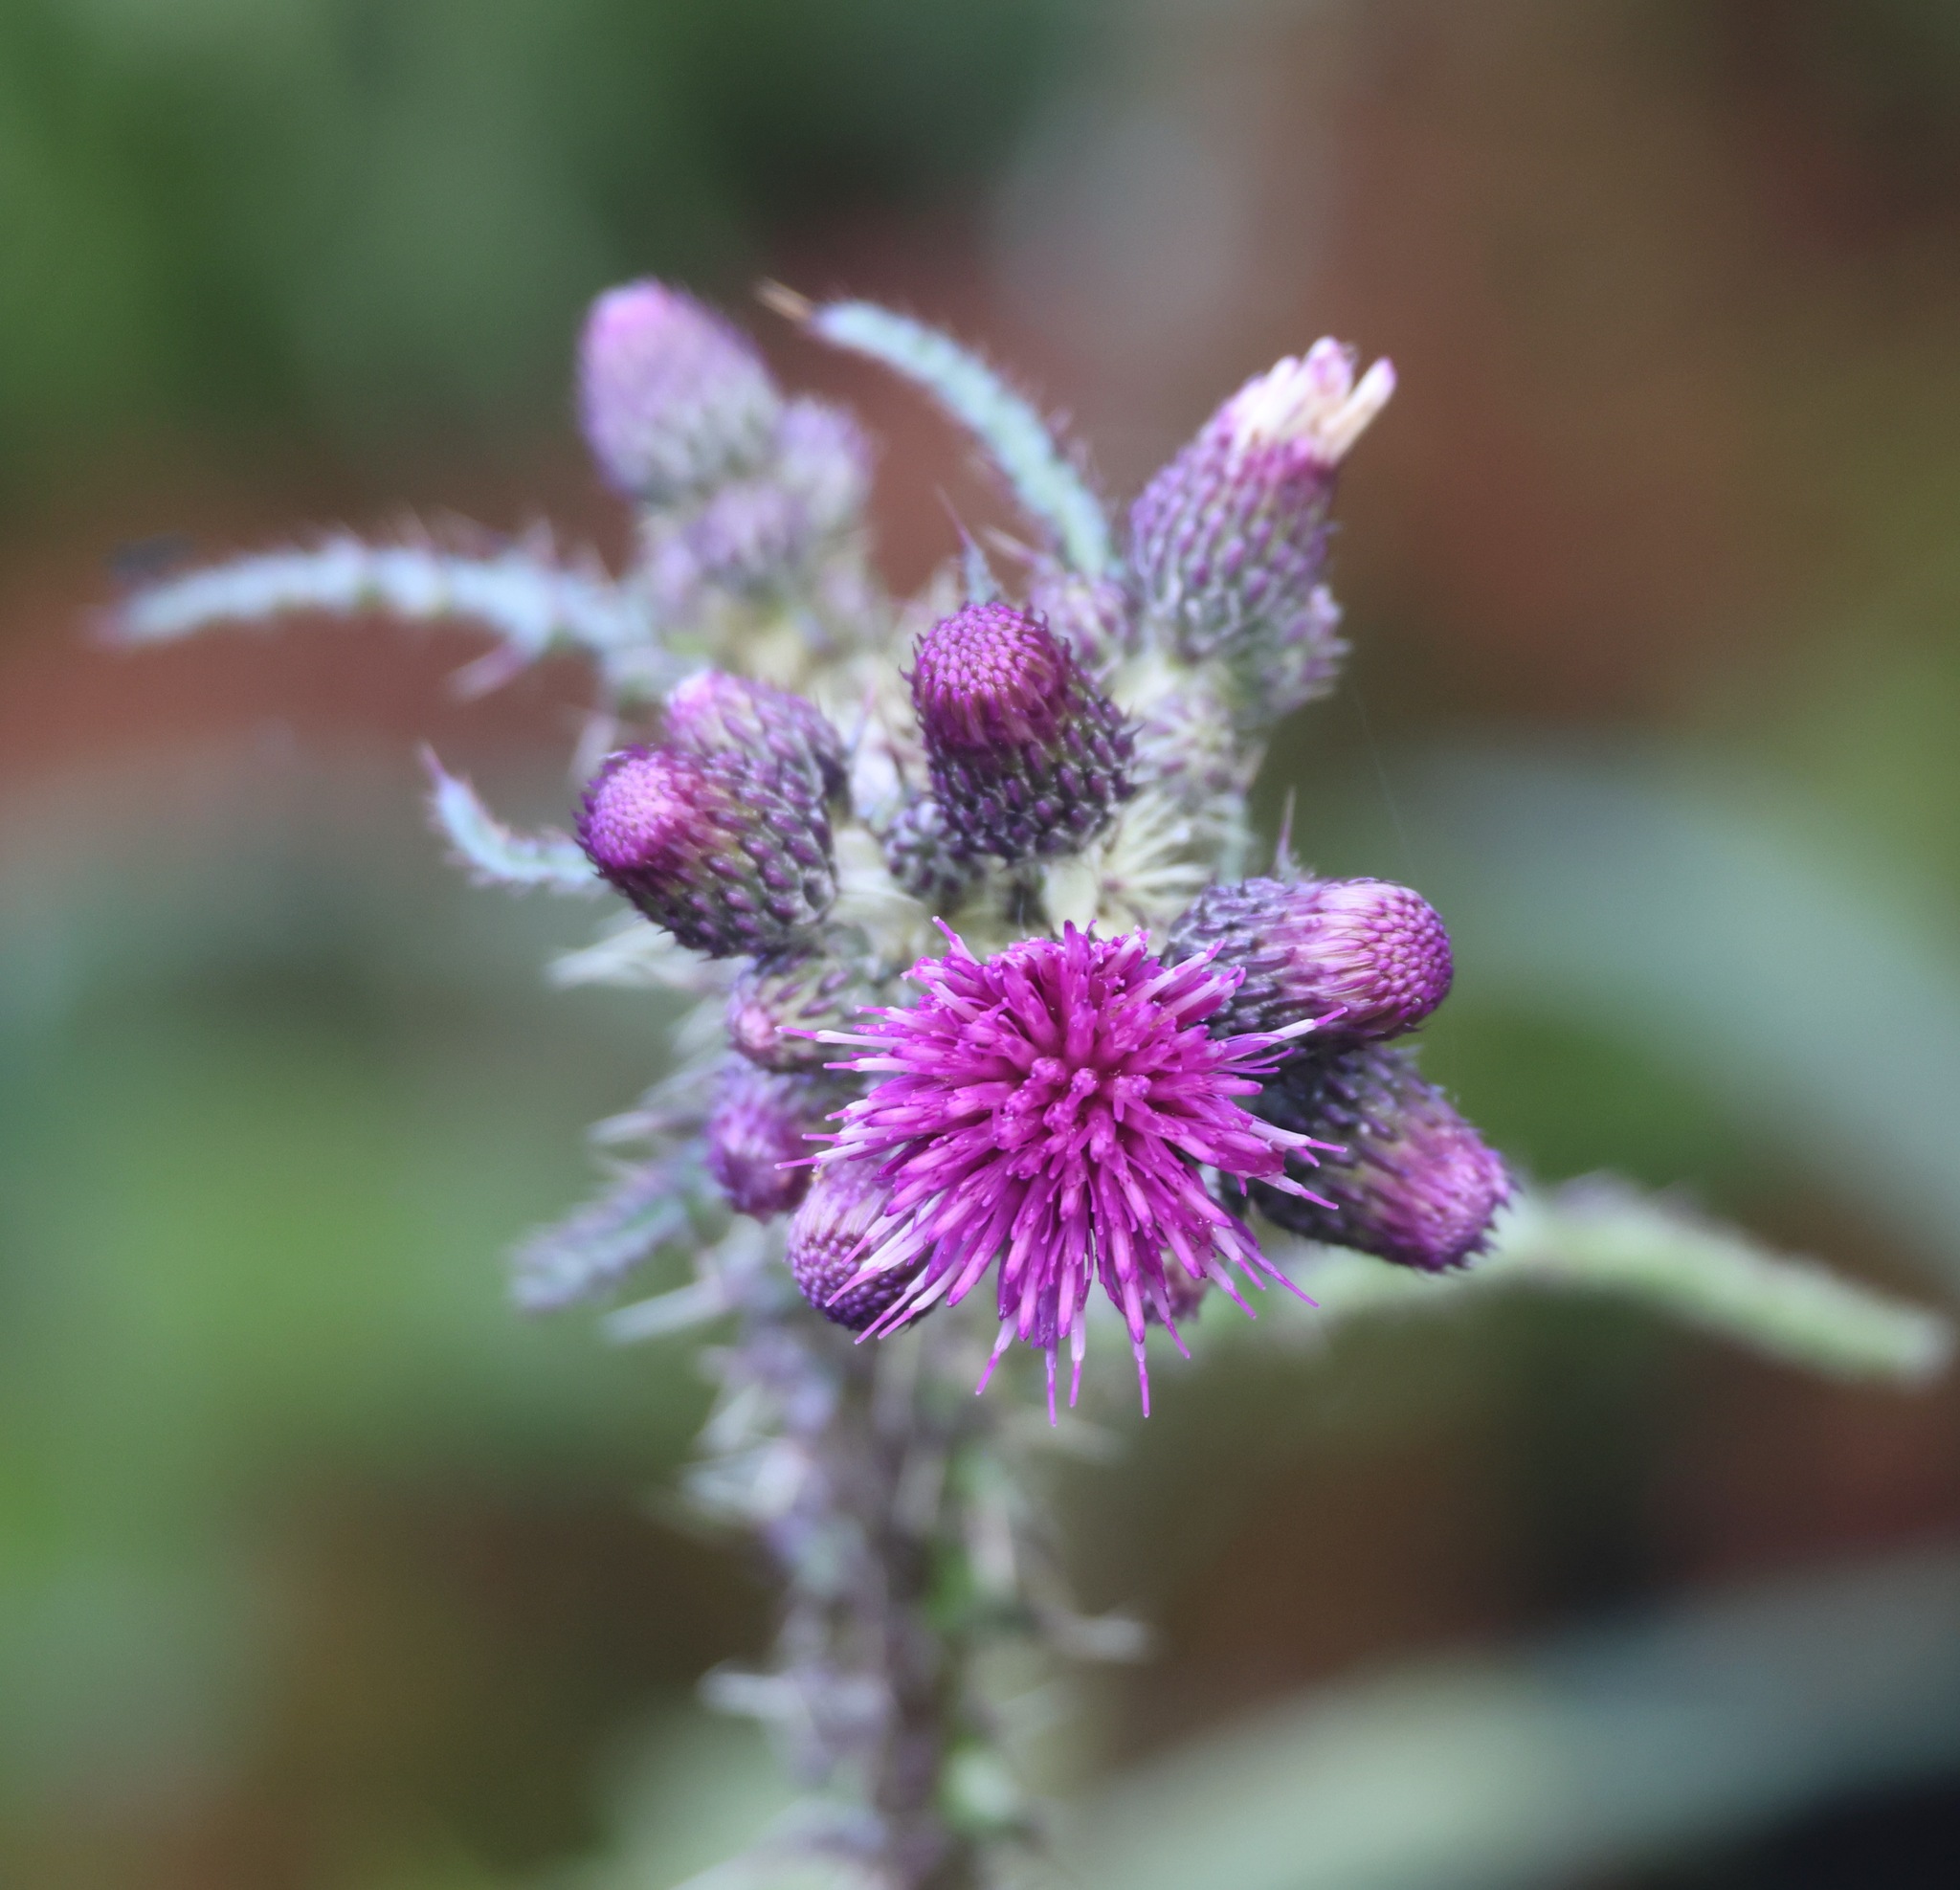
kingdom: Plantae
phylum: Tracheophyta
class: Magnoliopsida
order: Asterales
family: Asteraceae
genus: Cirsium
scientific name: Cirsium palustre
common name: Marsh thistle
